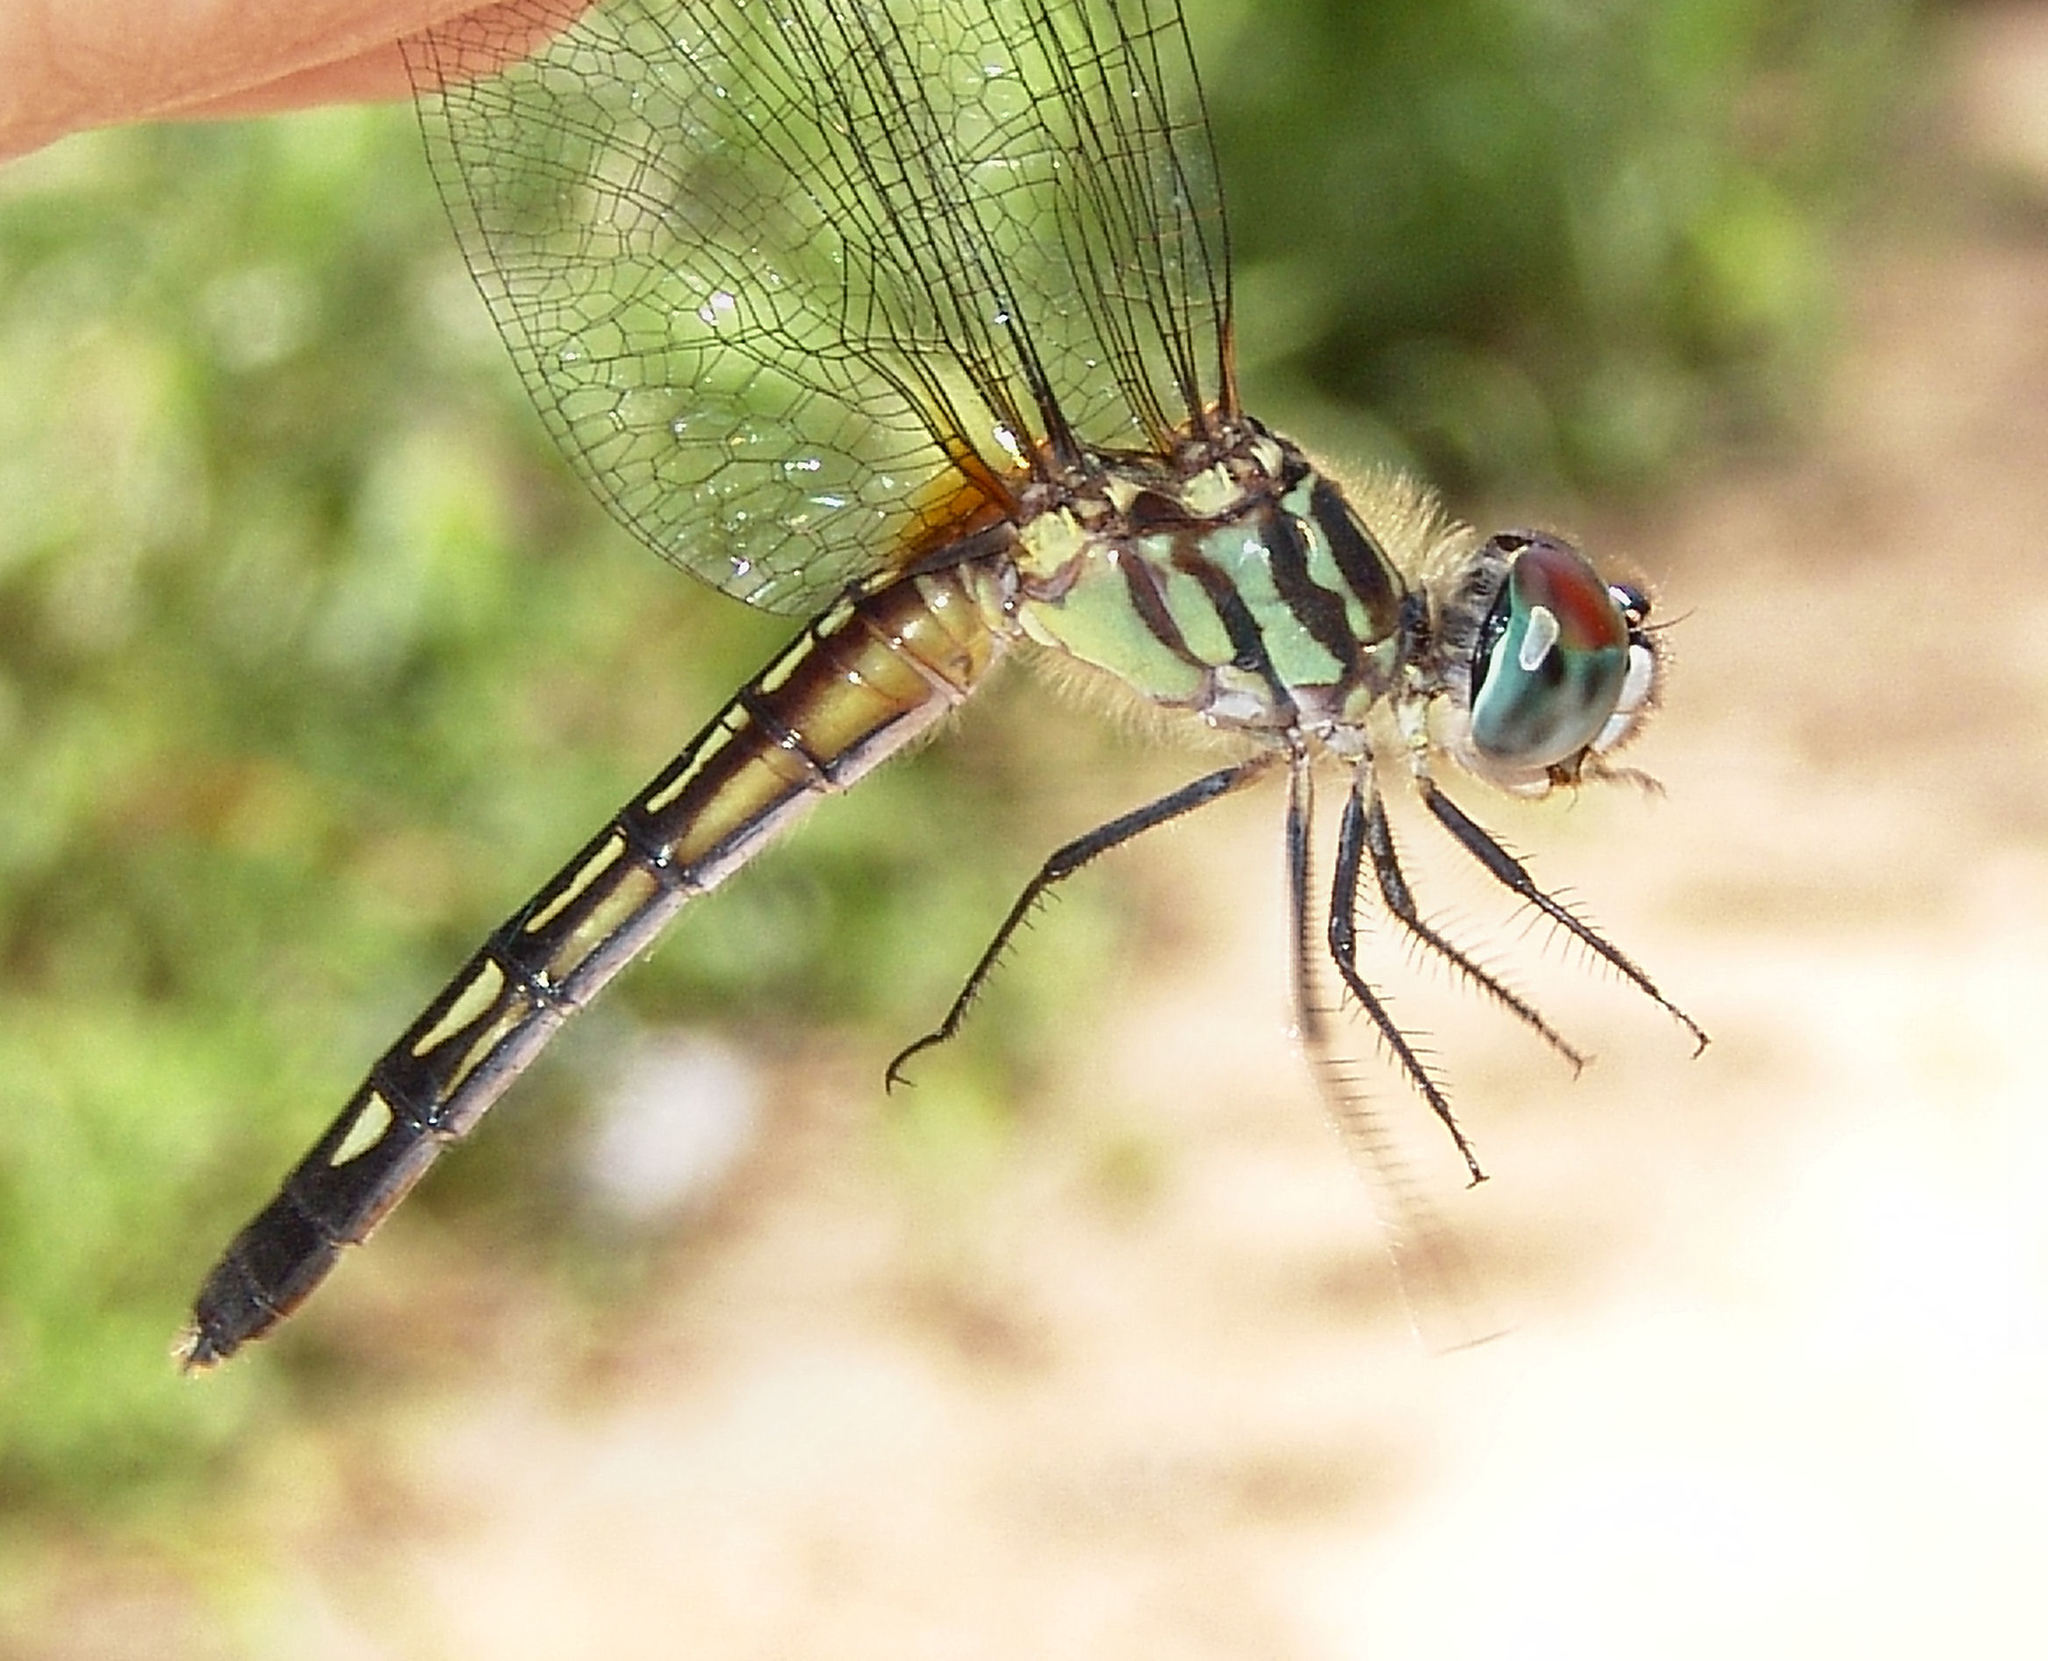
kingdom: Animalia
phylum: Arthropoda
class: Insecta
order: Odonata
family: Libellulidae
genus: Pachydiplax
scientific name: Pachydiplax longipennis
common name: Blue dasher
